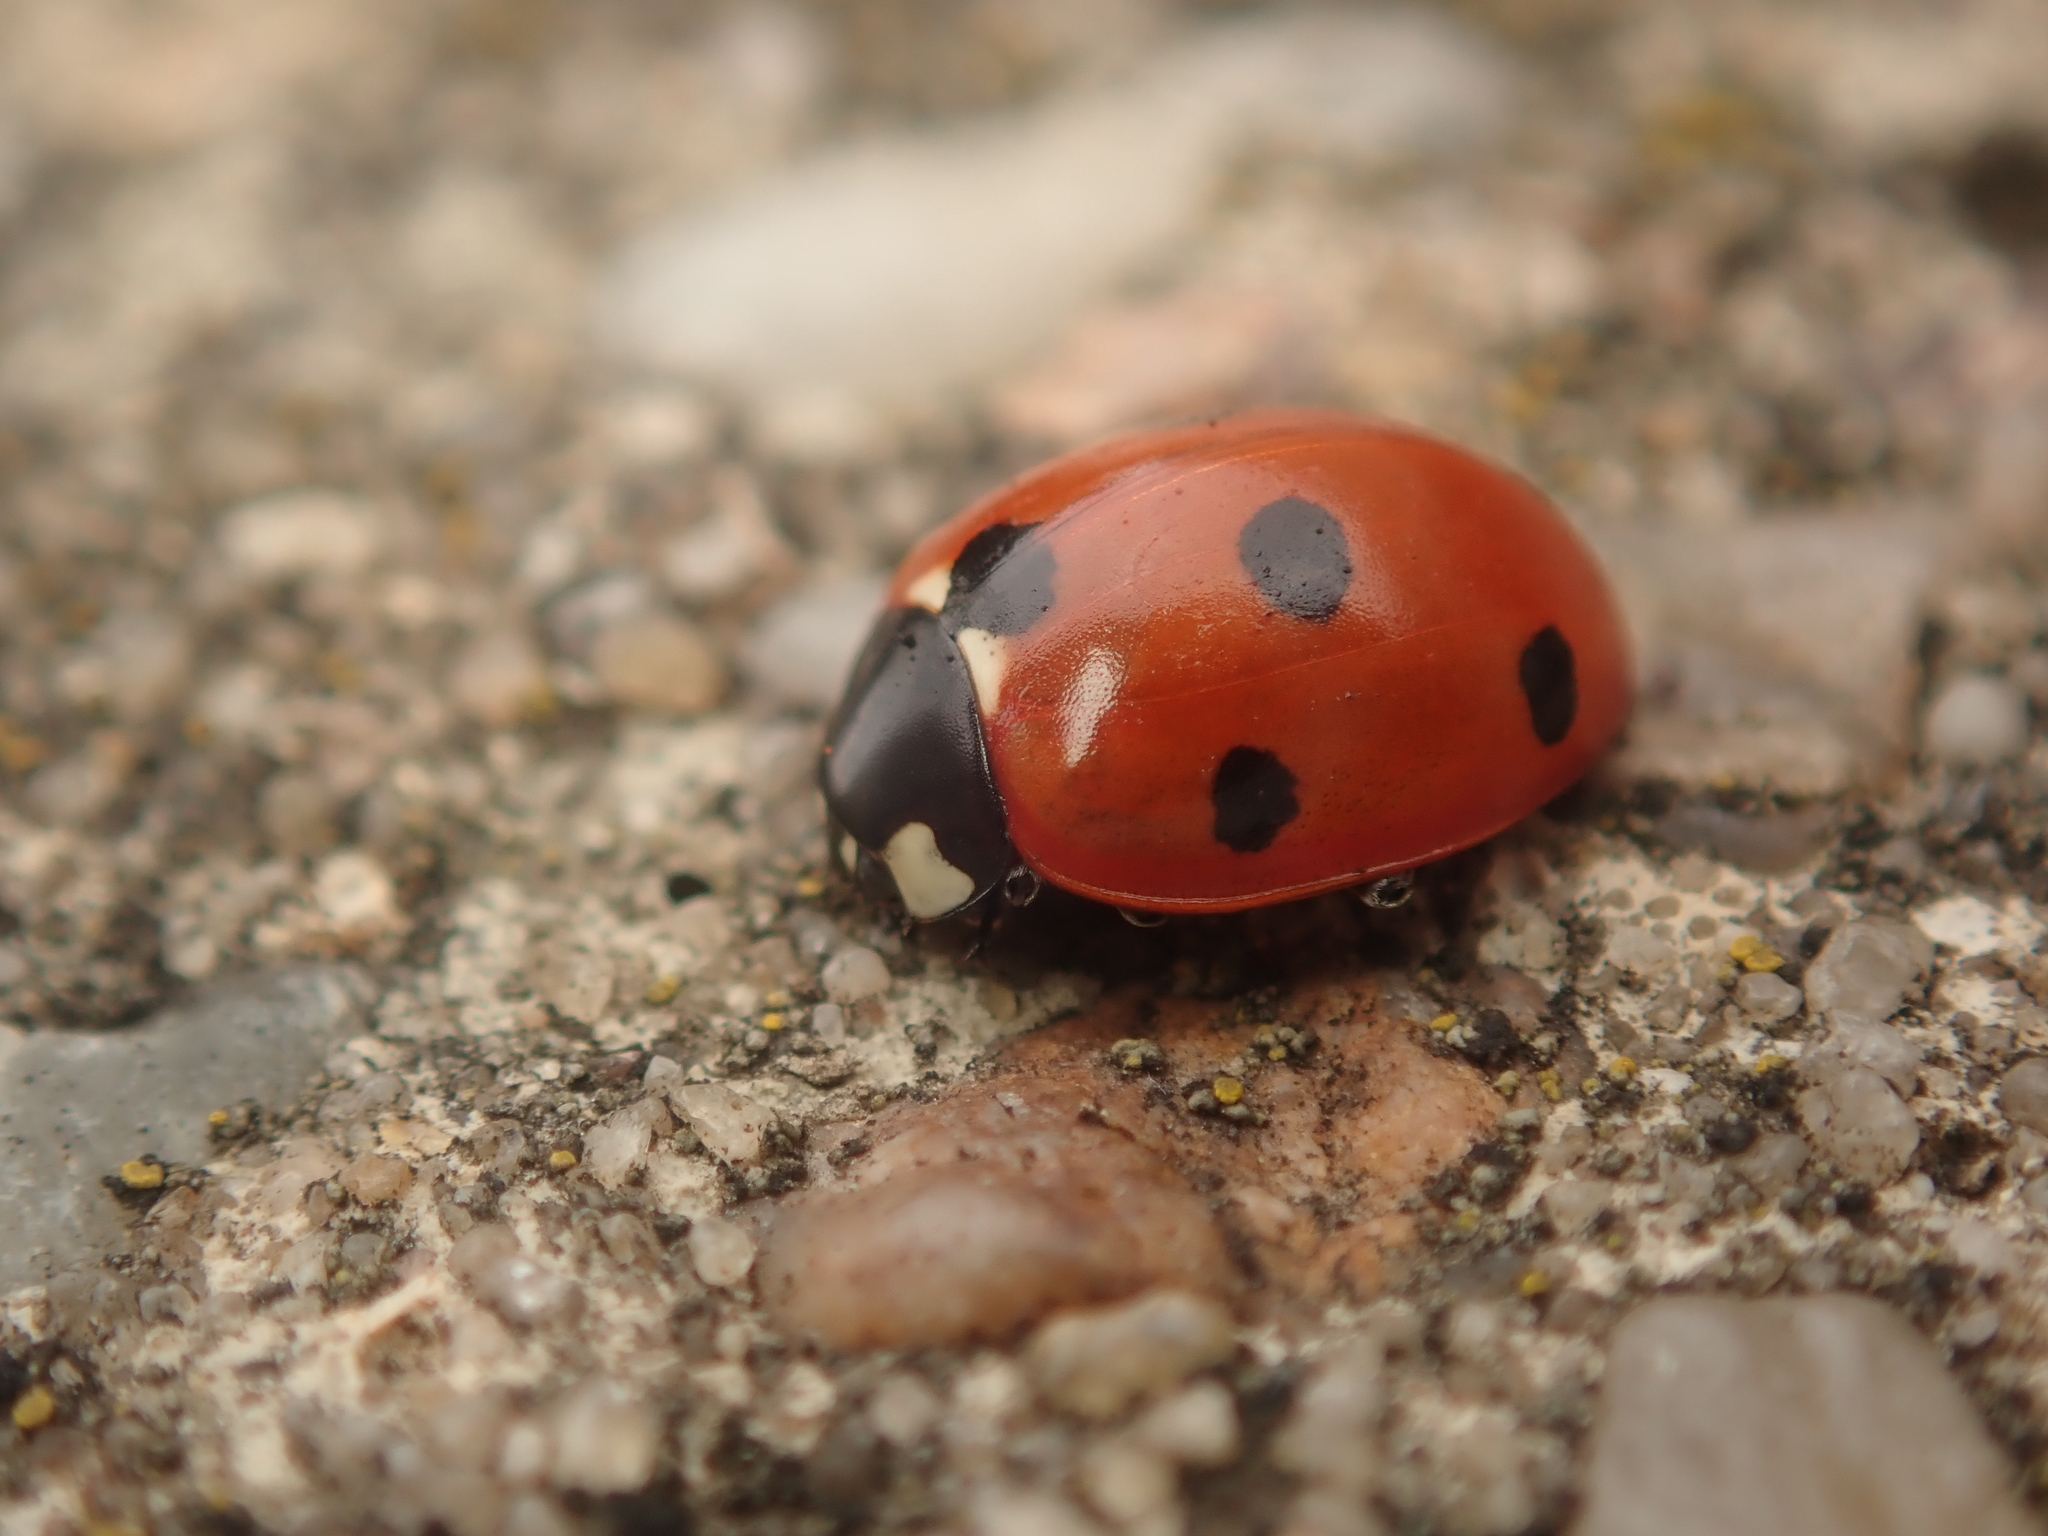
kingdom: Animalia
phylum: Arthropoda
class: Insecta
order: Coleoptera
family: Coccinellidae
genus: Coccinella
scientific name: Coccinella septempunctata
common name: Sevenspotted lady beetle
